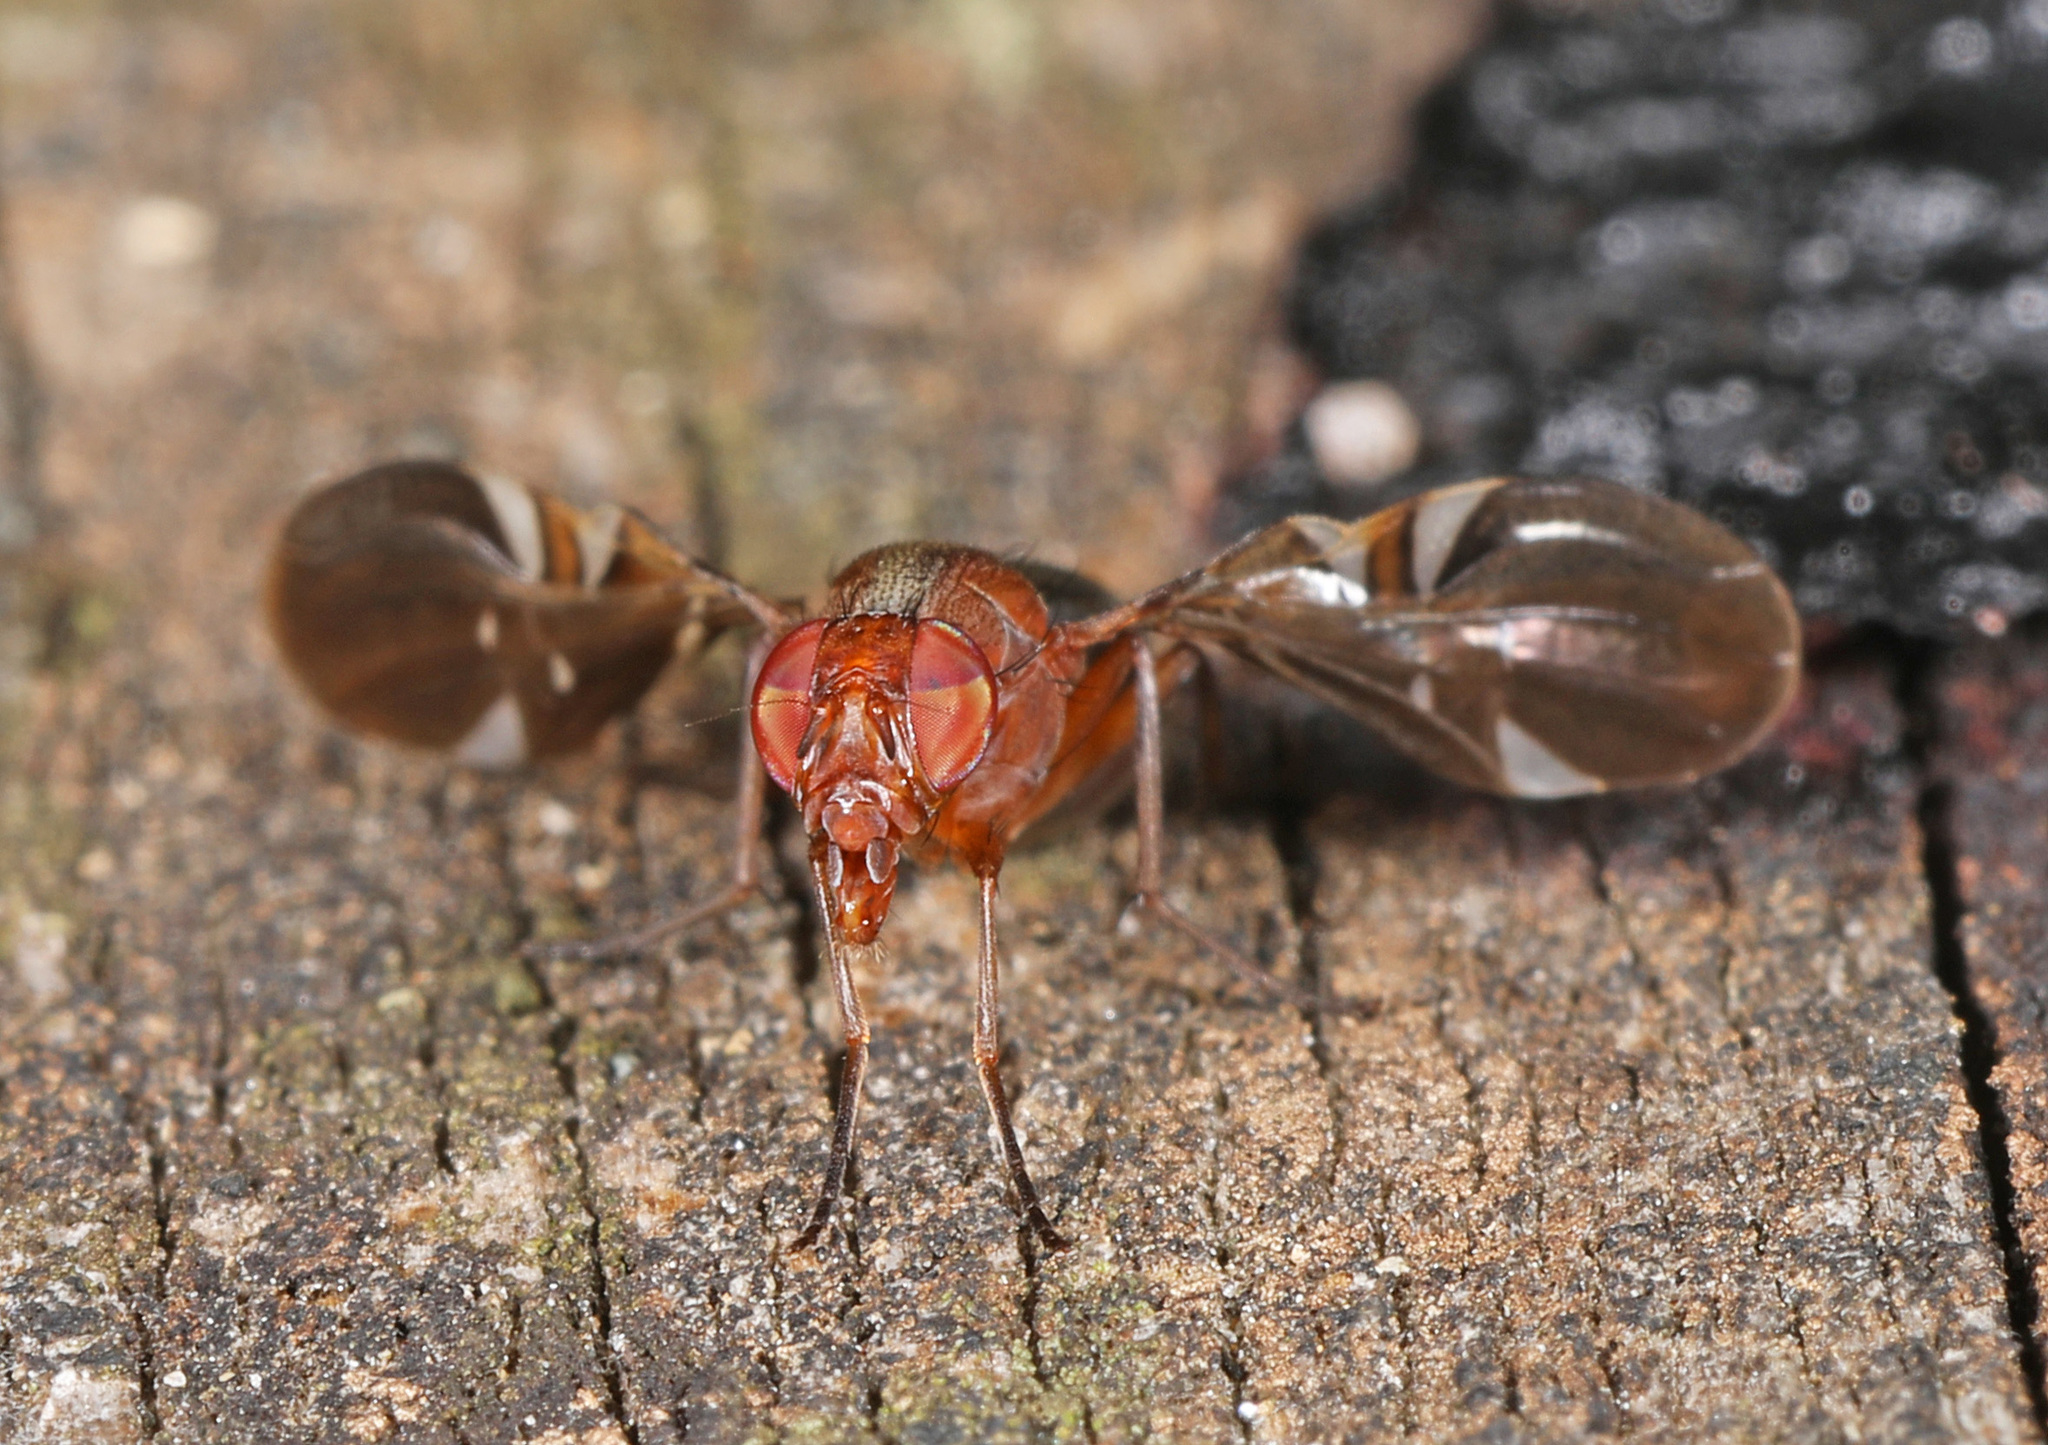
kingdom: Animalia
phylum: Arthropoda
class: Insecta
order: Diptera
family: Ulidiidae
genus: Delphinia
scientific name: Delphinia picta
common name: Common picture-winged fly
